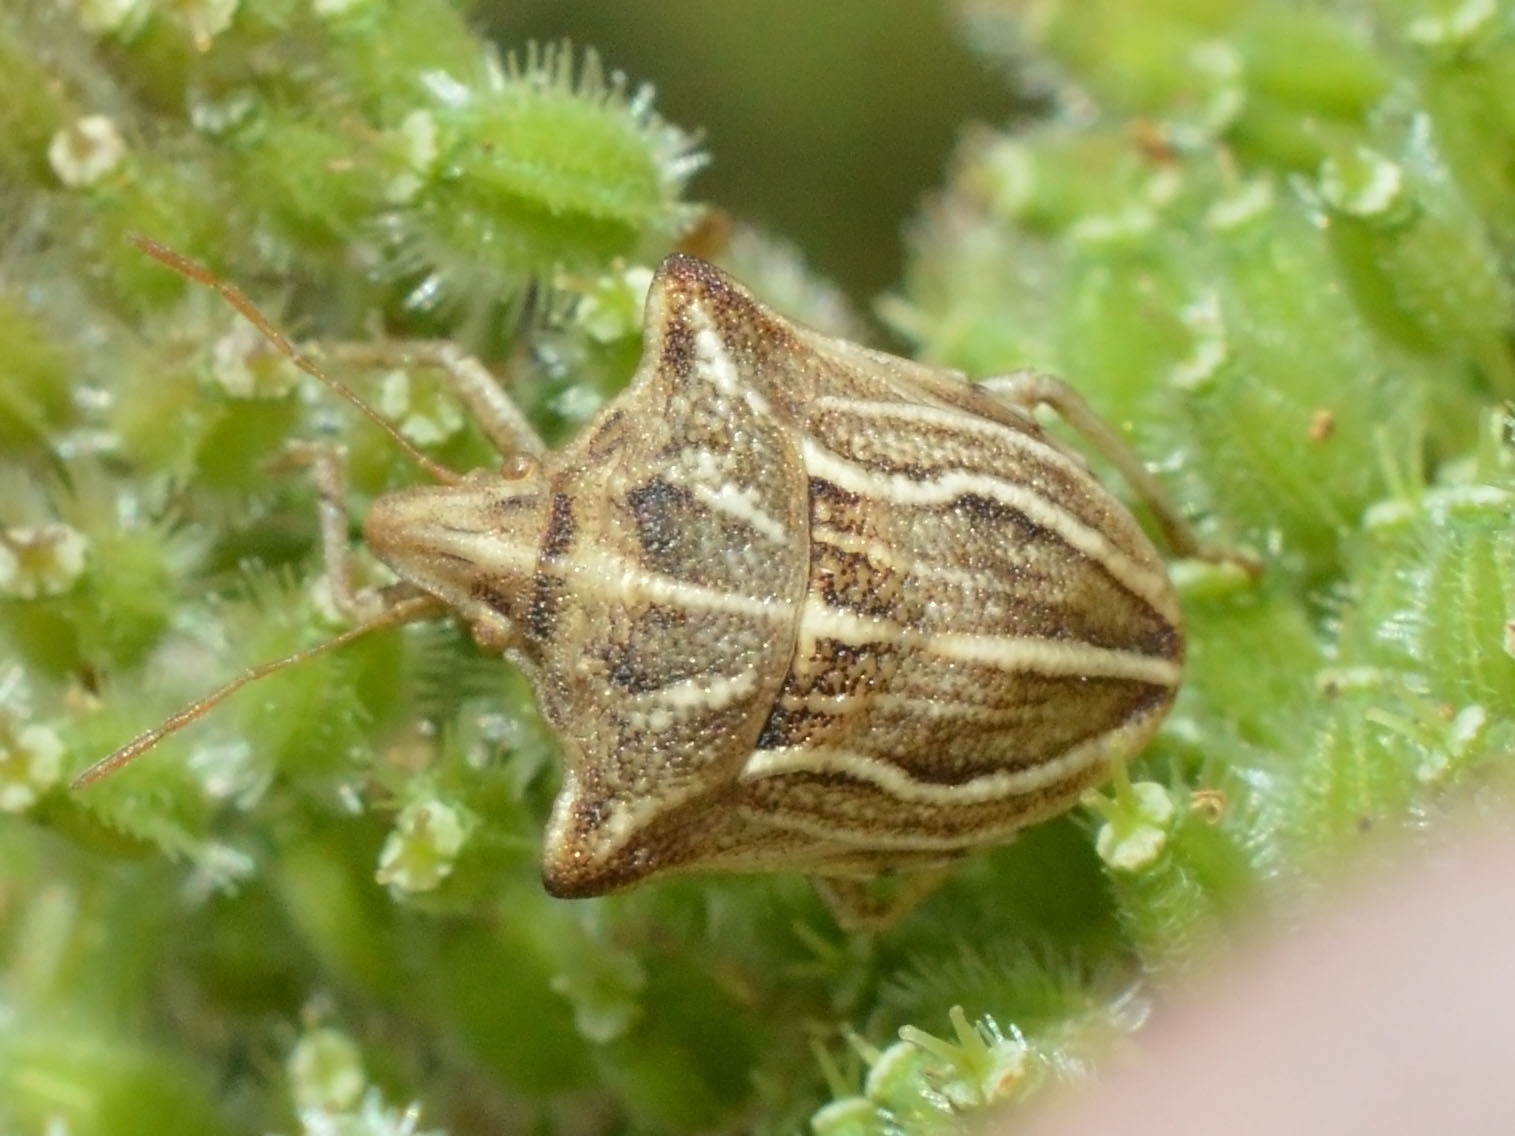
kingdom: Animalia
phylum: Arthropoda
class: Insecta
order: Hemiptera
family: Pentatomidae
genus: Ancyrosoma
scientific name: Ancyrosoma leucogrammes
